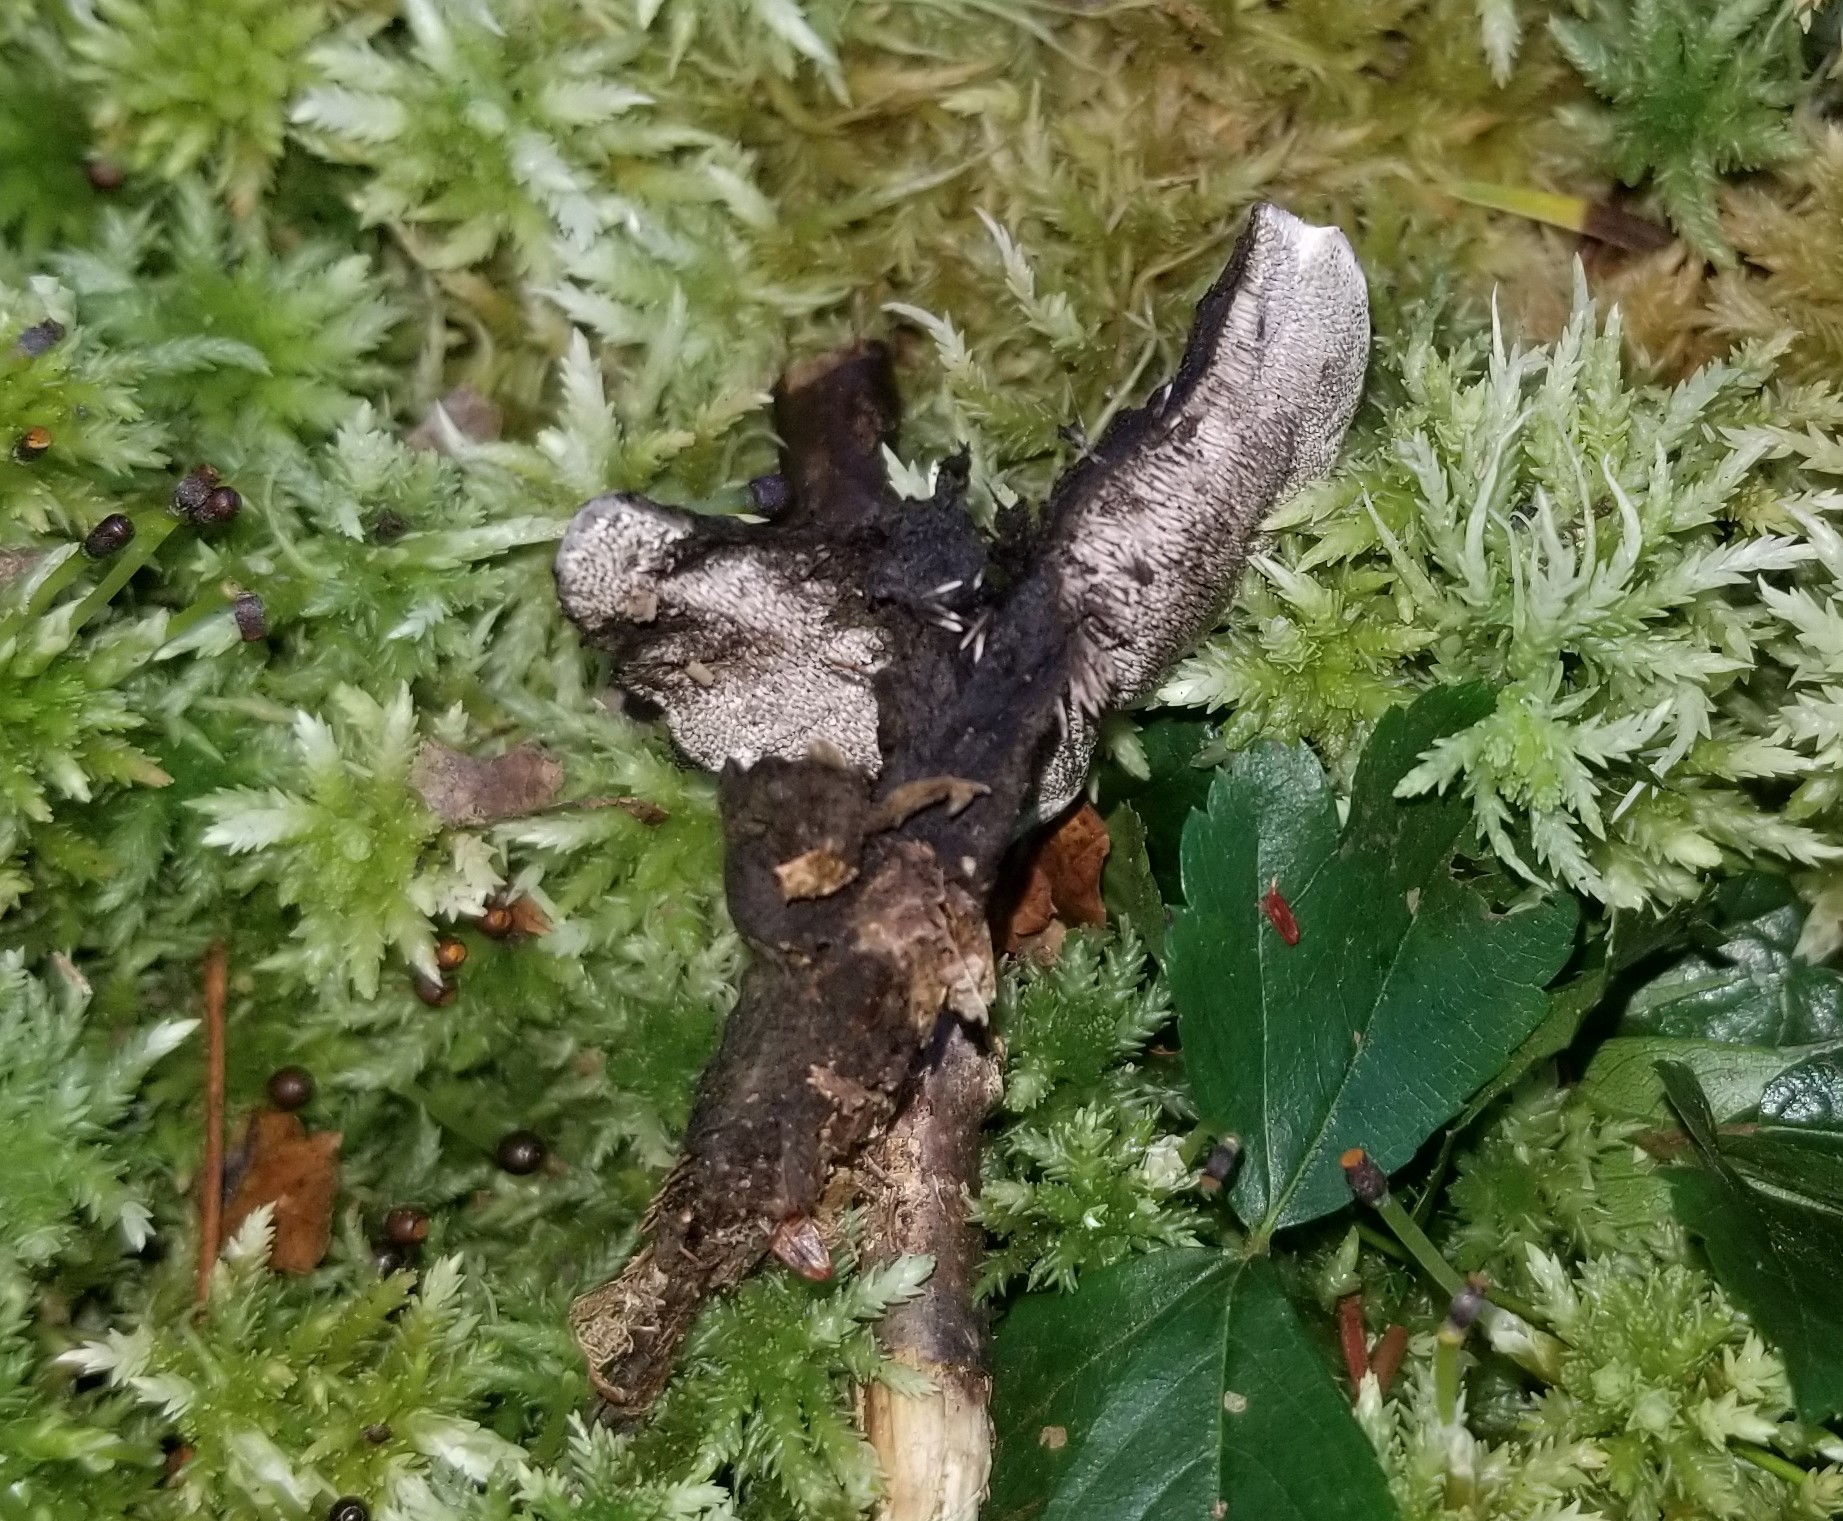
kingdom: Fungi
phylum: Basidiomycota
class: Agaricomycetes
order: Thelephorales
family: Thelephoraceae
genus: Phellodon
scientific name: Phellodon niger
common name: Black tooth
